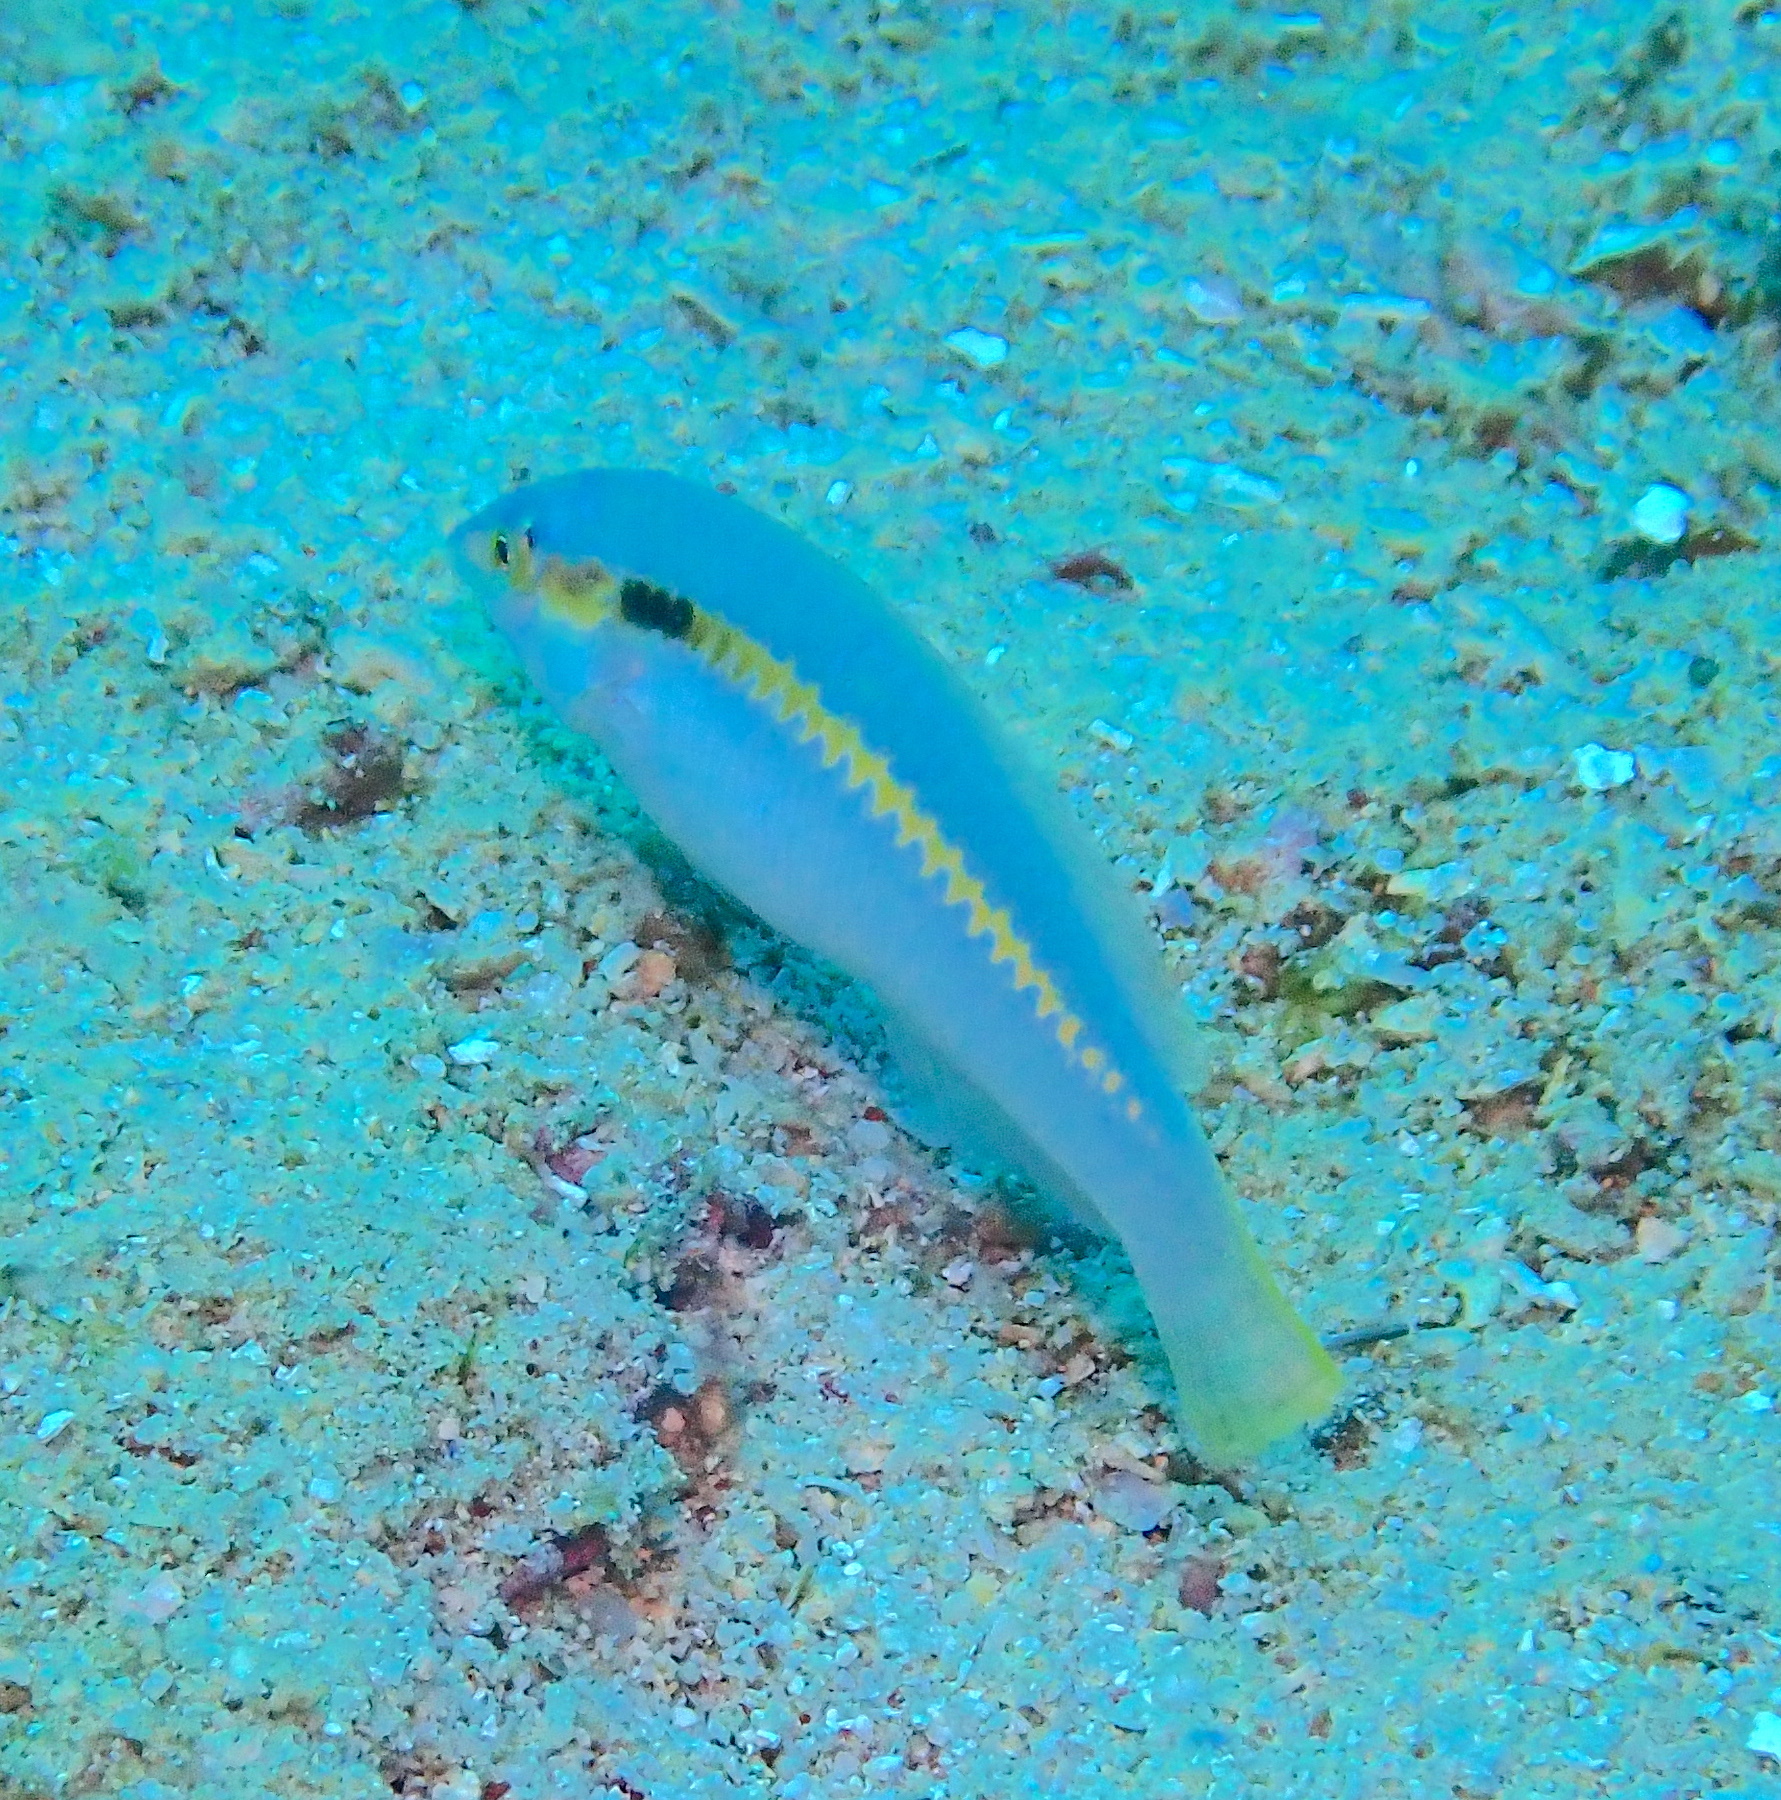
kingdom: Animalia
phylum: Chordata
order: Perciformes
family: Labridae
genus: Halichoeres
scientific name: Halichoeres scapularis
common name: Brownbanded wrasse
